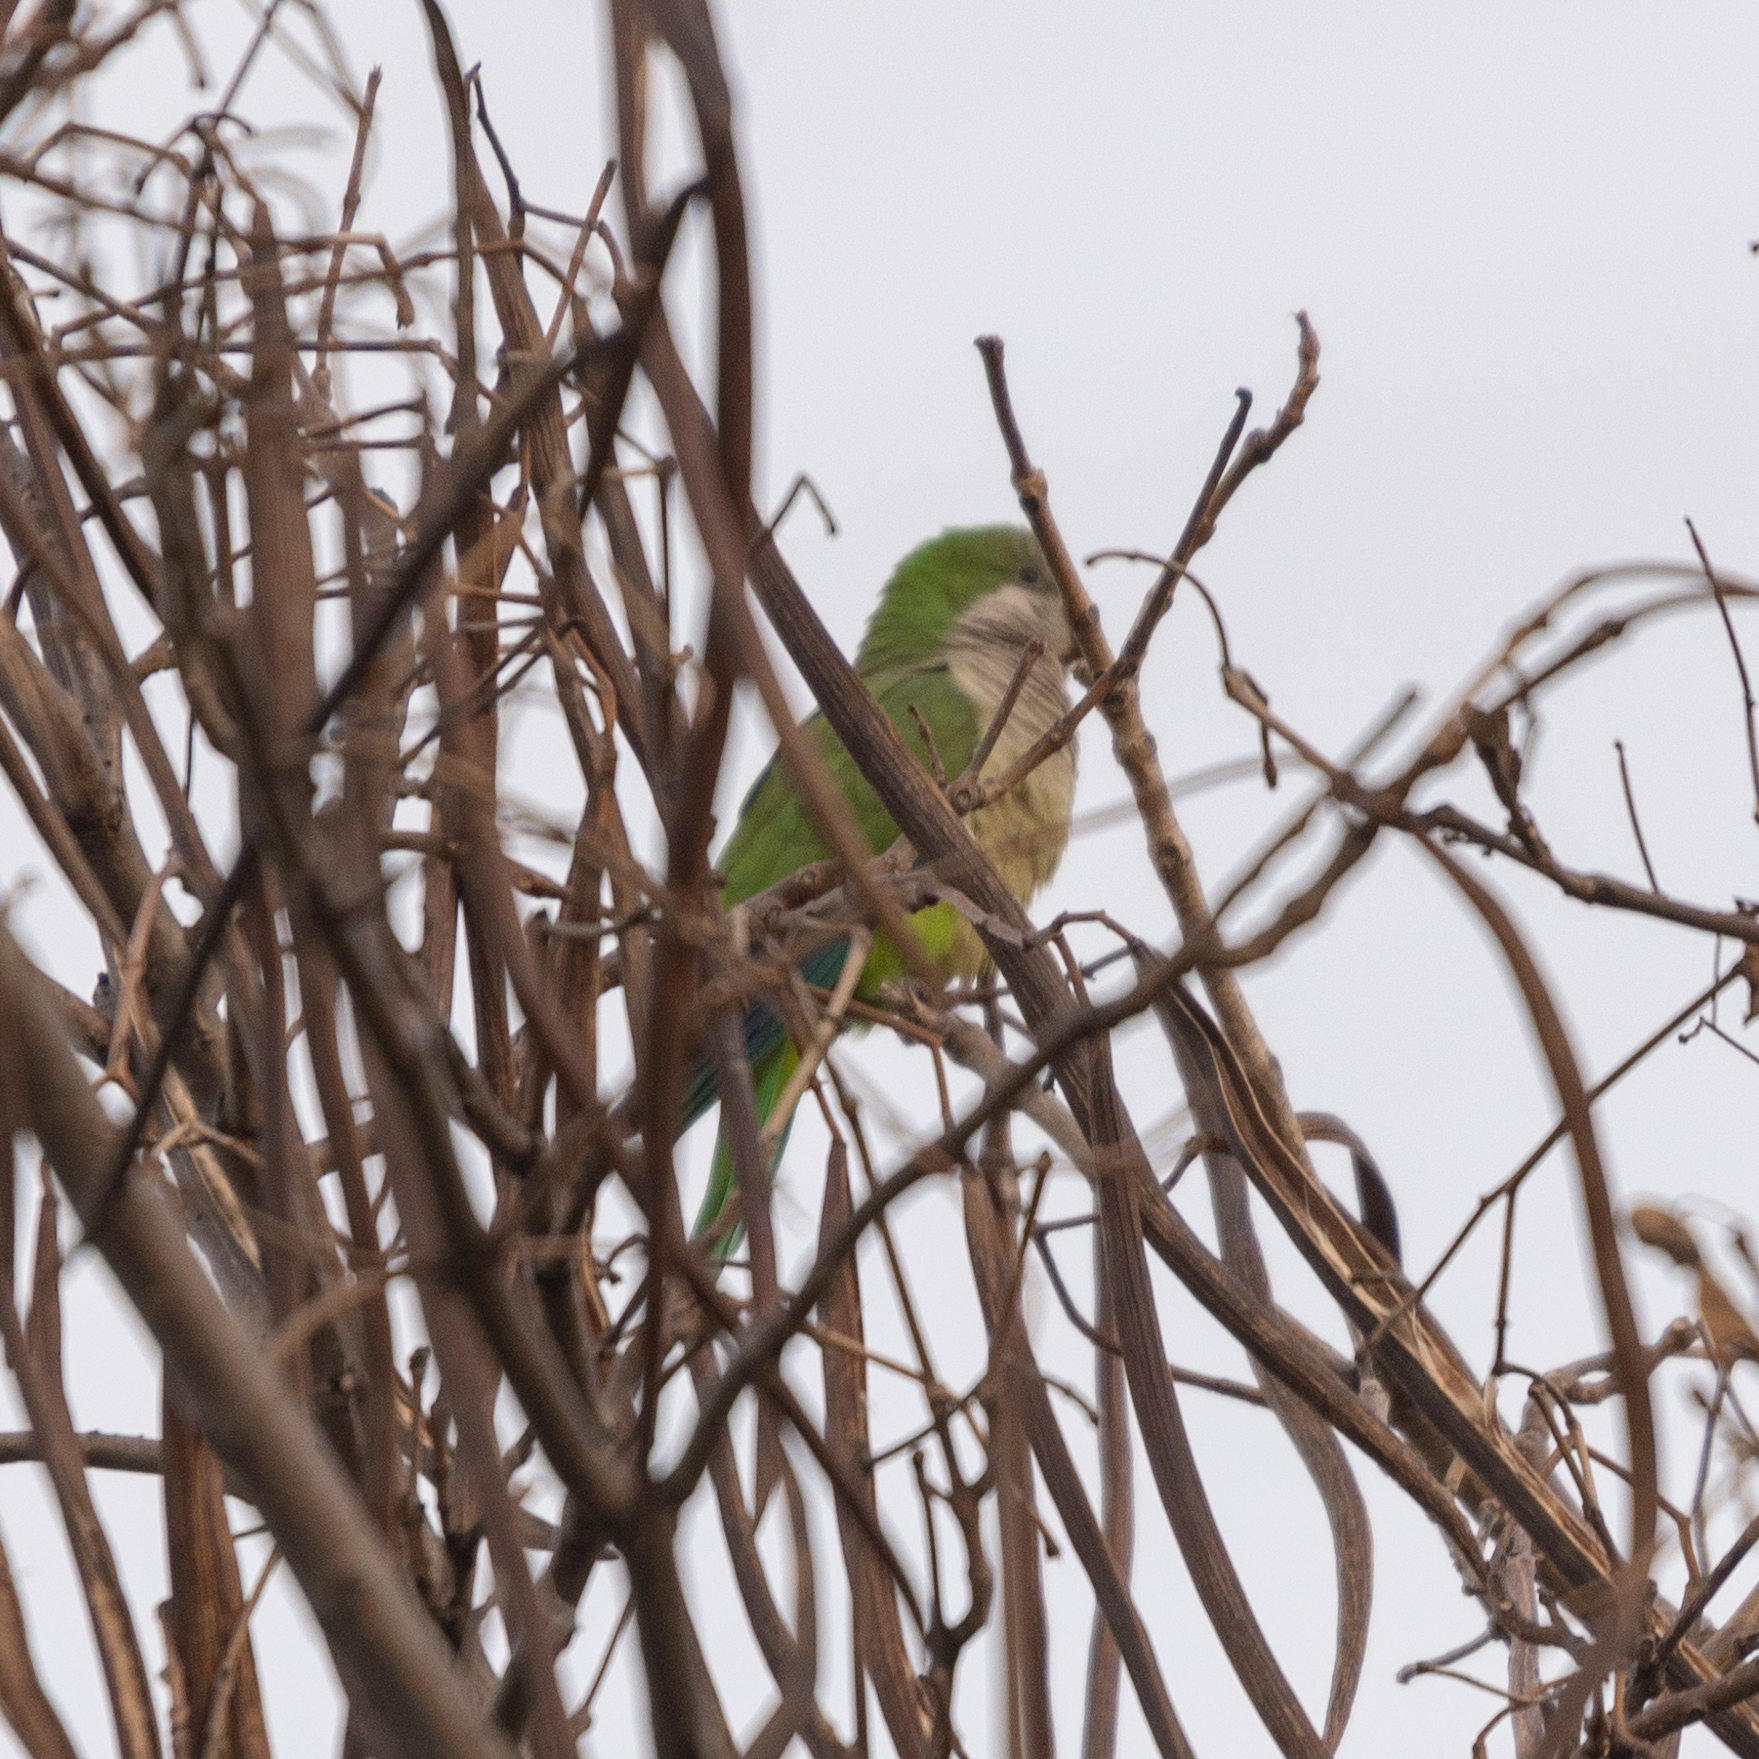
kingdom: Animalia
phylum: Chordata
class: Aves
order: Psittaciformes
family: Psittacidae
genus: Myiopsitta
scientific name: Myiopsitta monachus
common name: Monk parakeet
